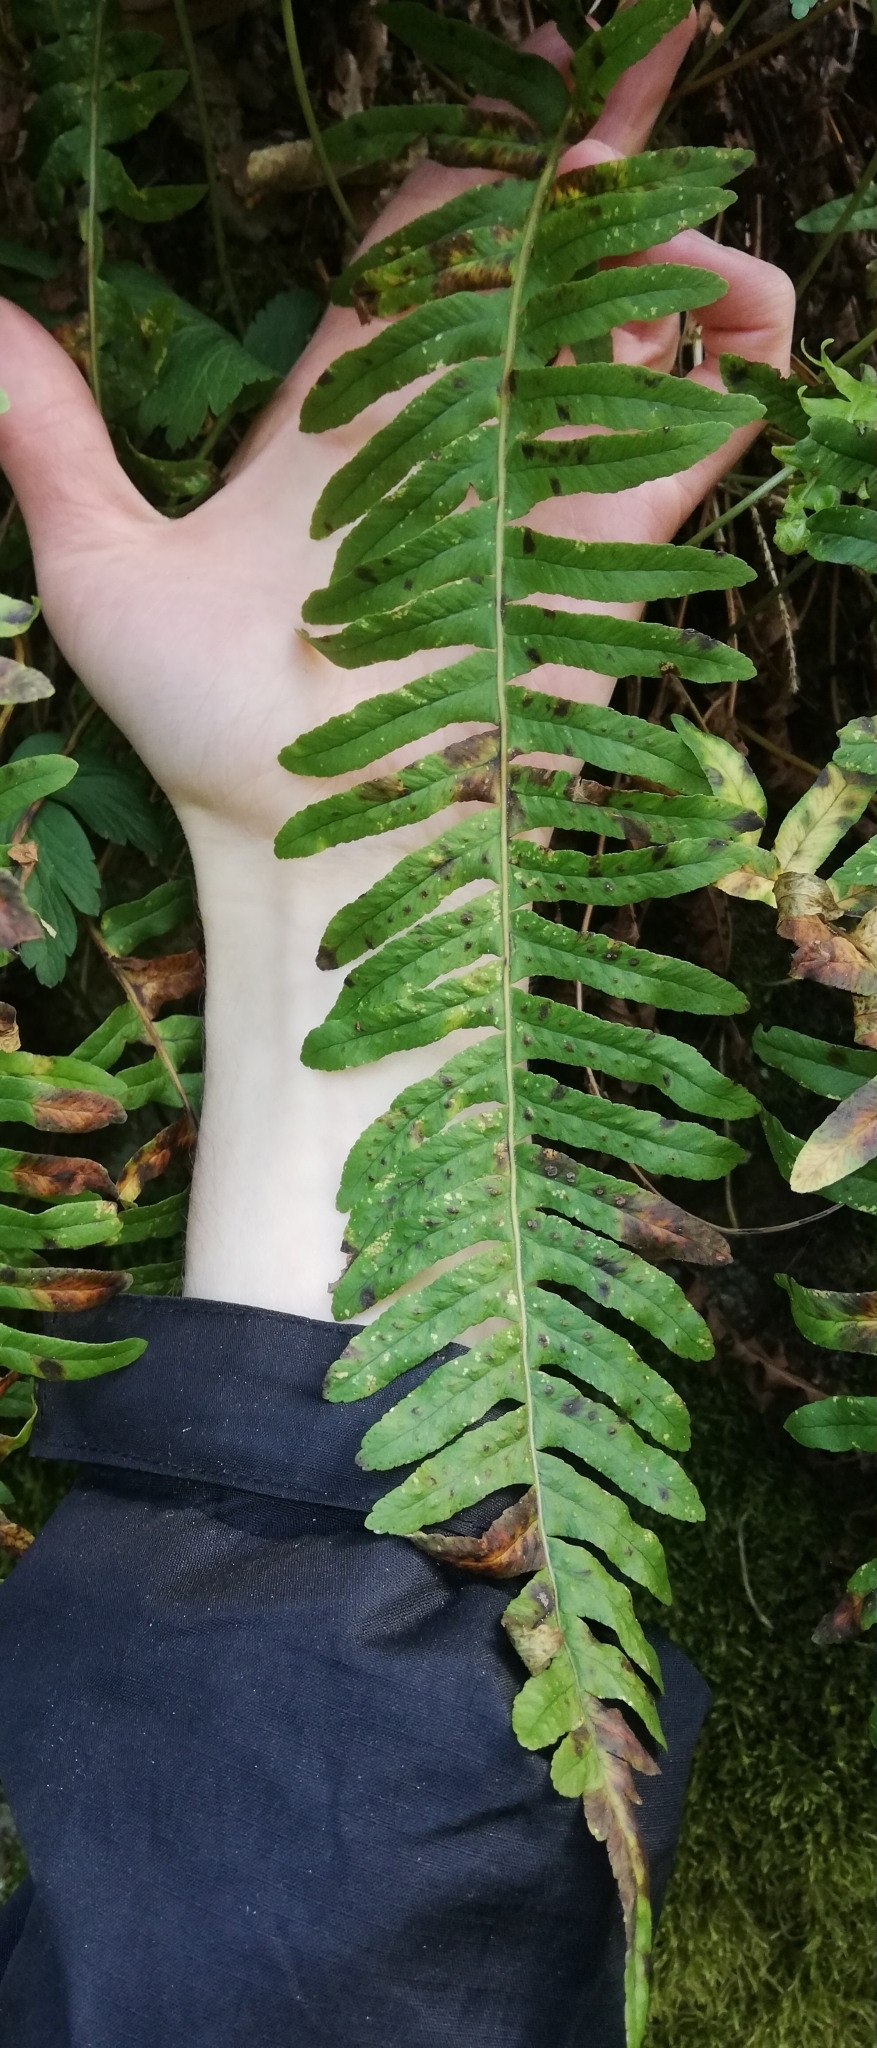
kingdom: Plantae
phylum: Tracheophyta
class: Polypodiopsida
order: Polypodiales
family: Polypodiaceae
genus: Polypodium
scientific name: Polypodium vulgare
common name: Common polypody
